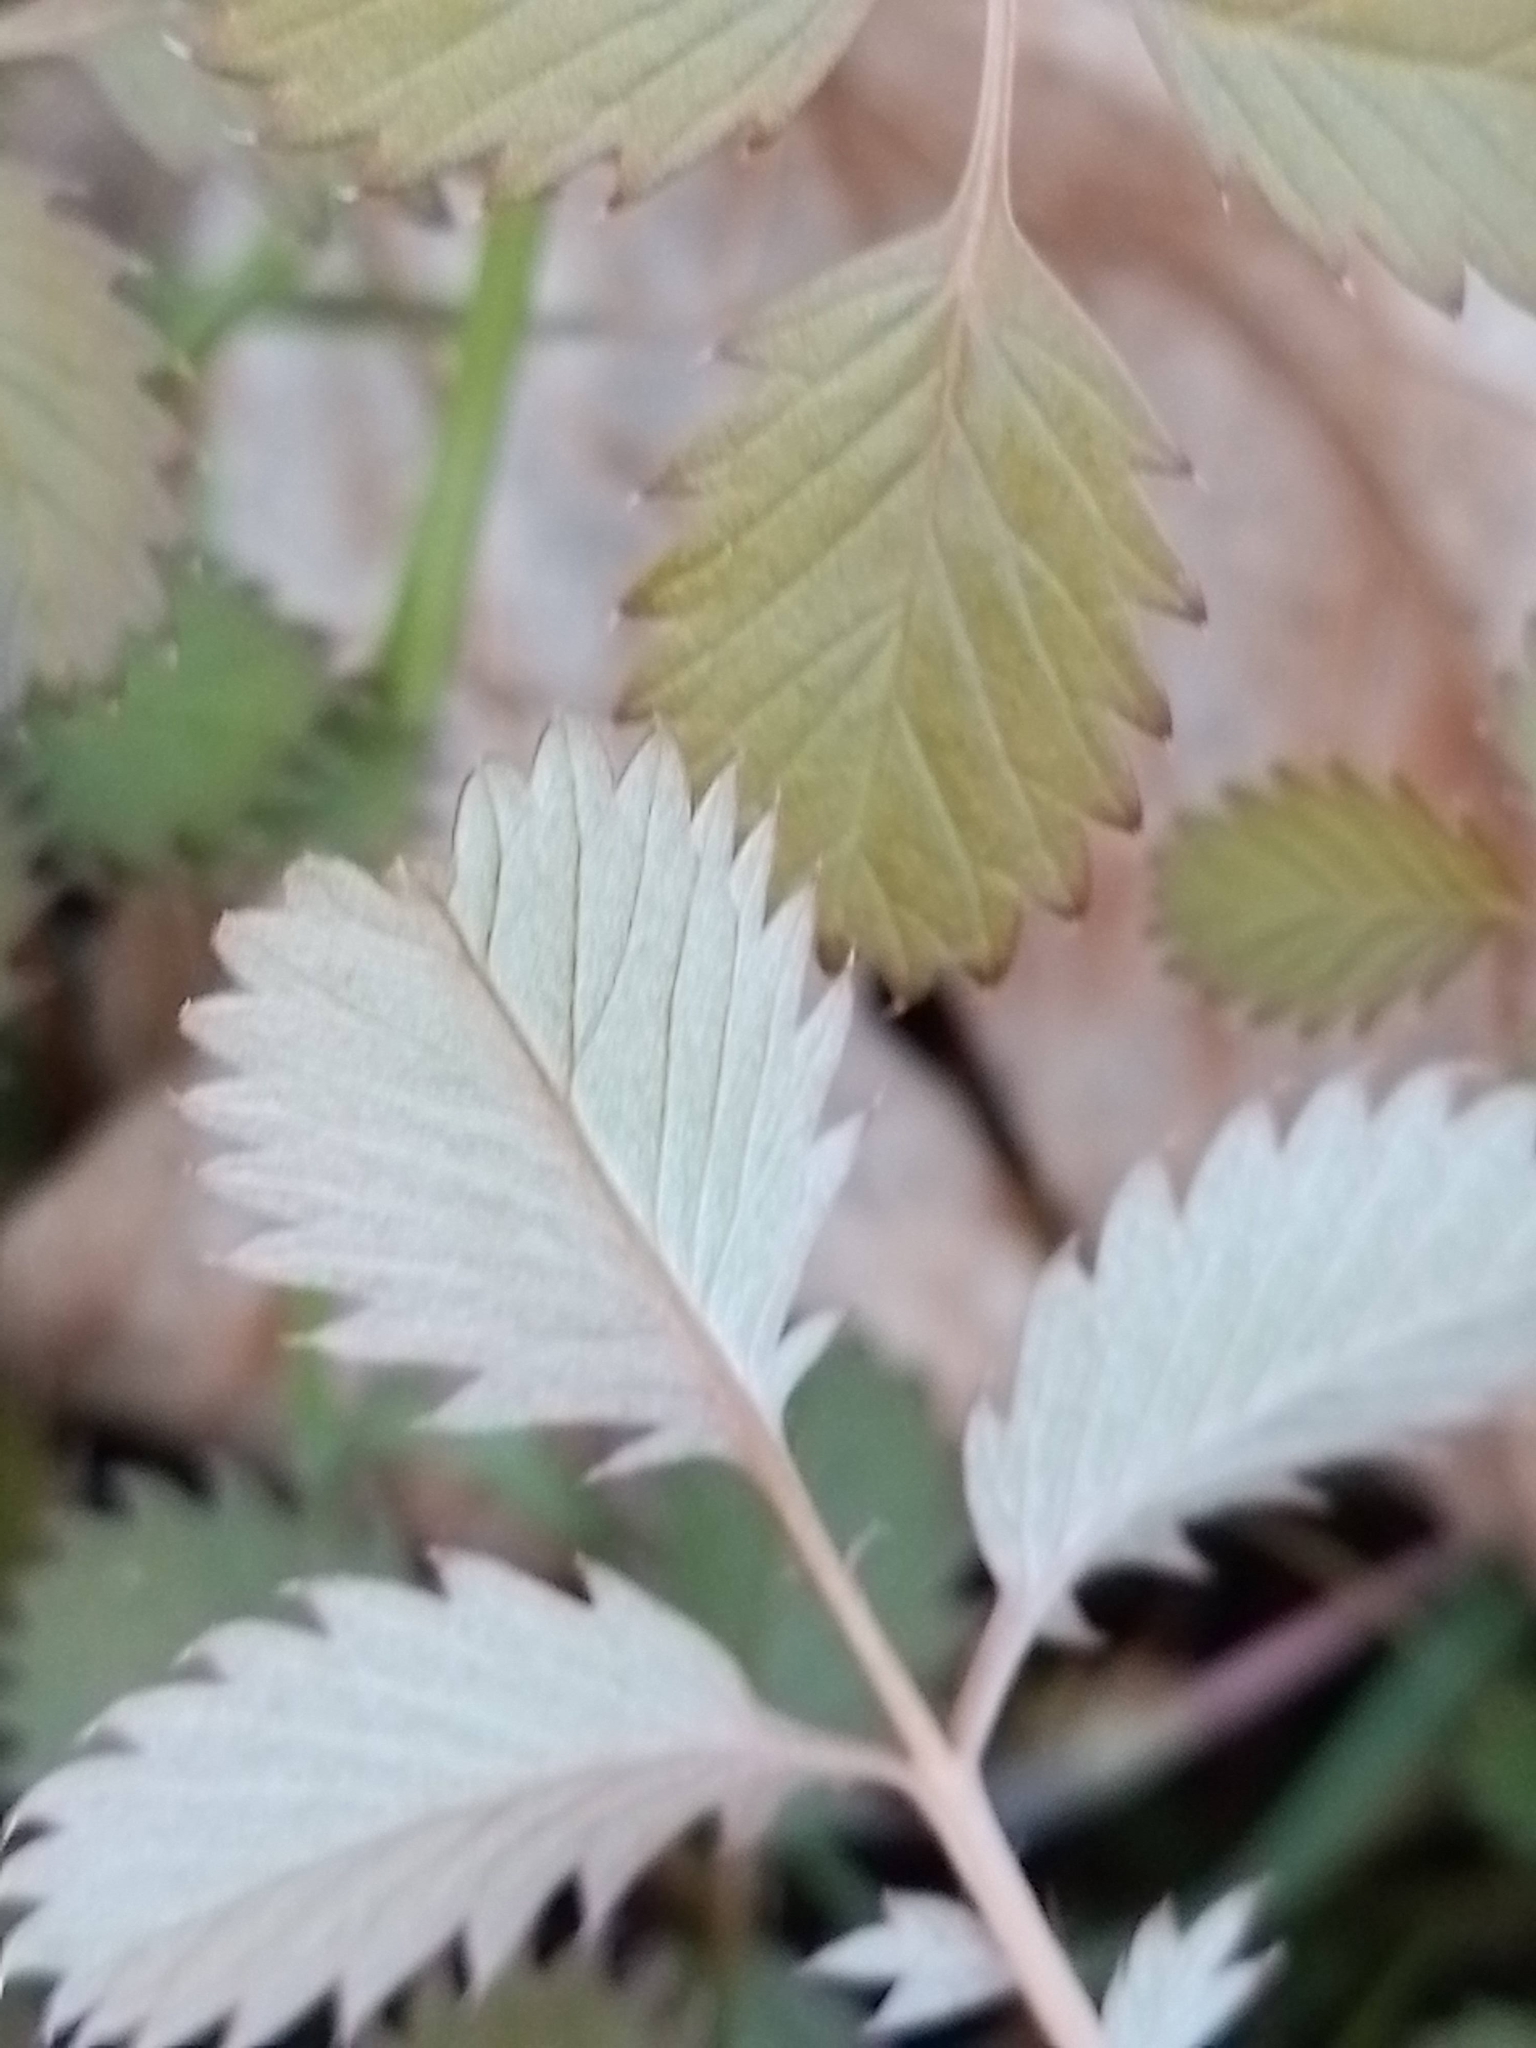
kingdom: Plantae
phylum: Tracheophyta
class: Magnoliopsida
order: Rosales
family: Rosaceae
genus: Argentina
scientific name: Argentina anserinoides
